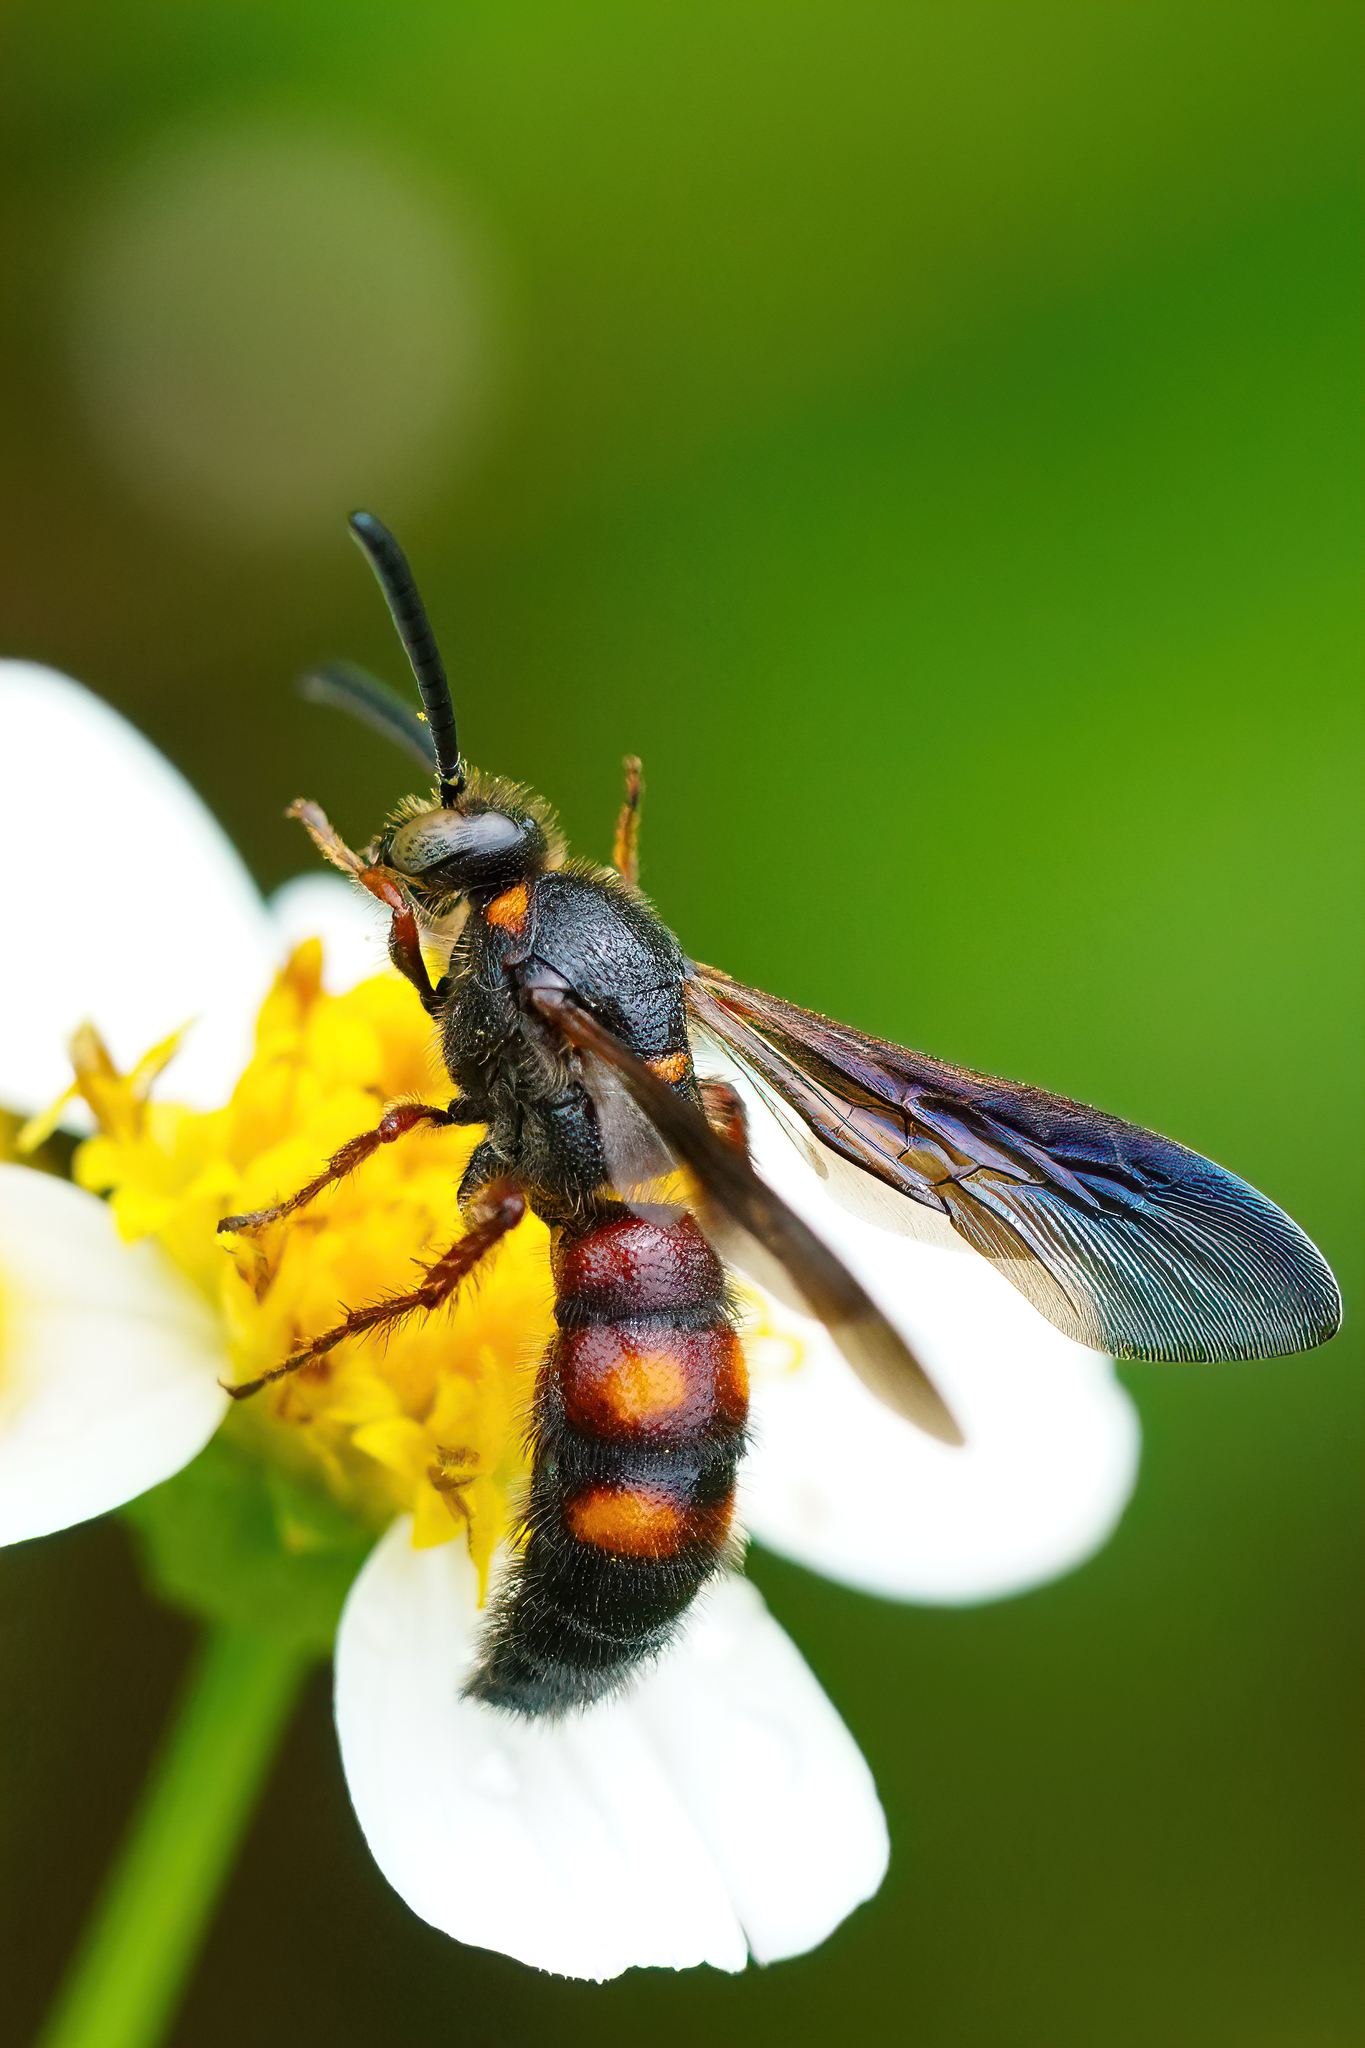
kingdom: Animalia
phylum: Arthropoda
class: Insecta
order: Hymenoptera
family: Scoliidae
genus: Scolia
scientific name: Scolia nobilitata
